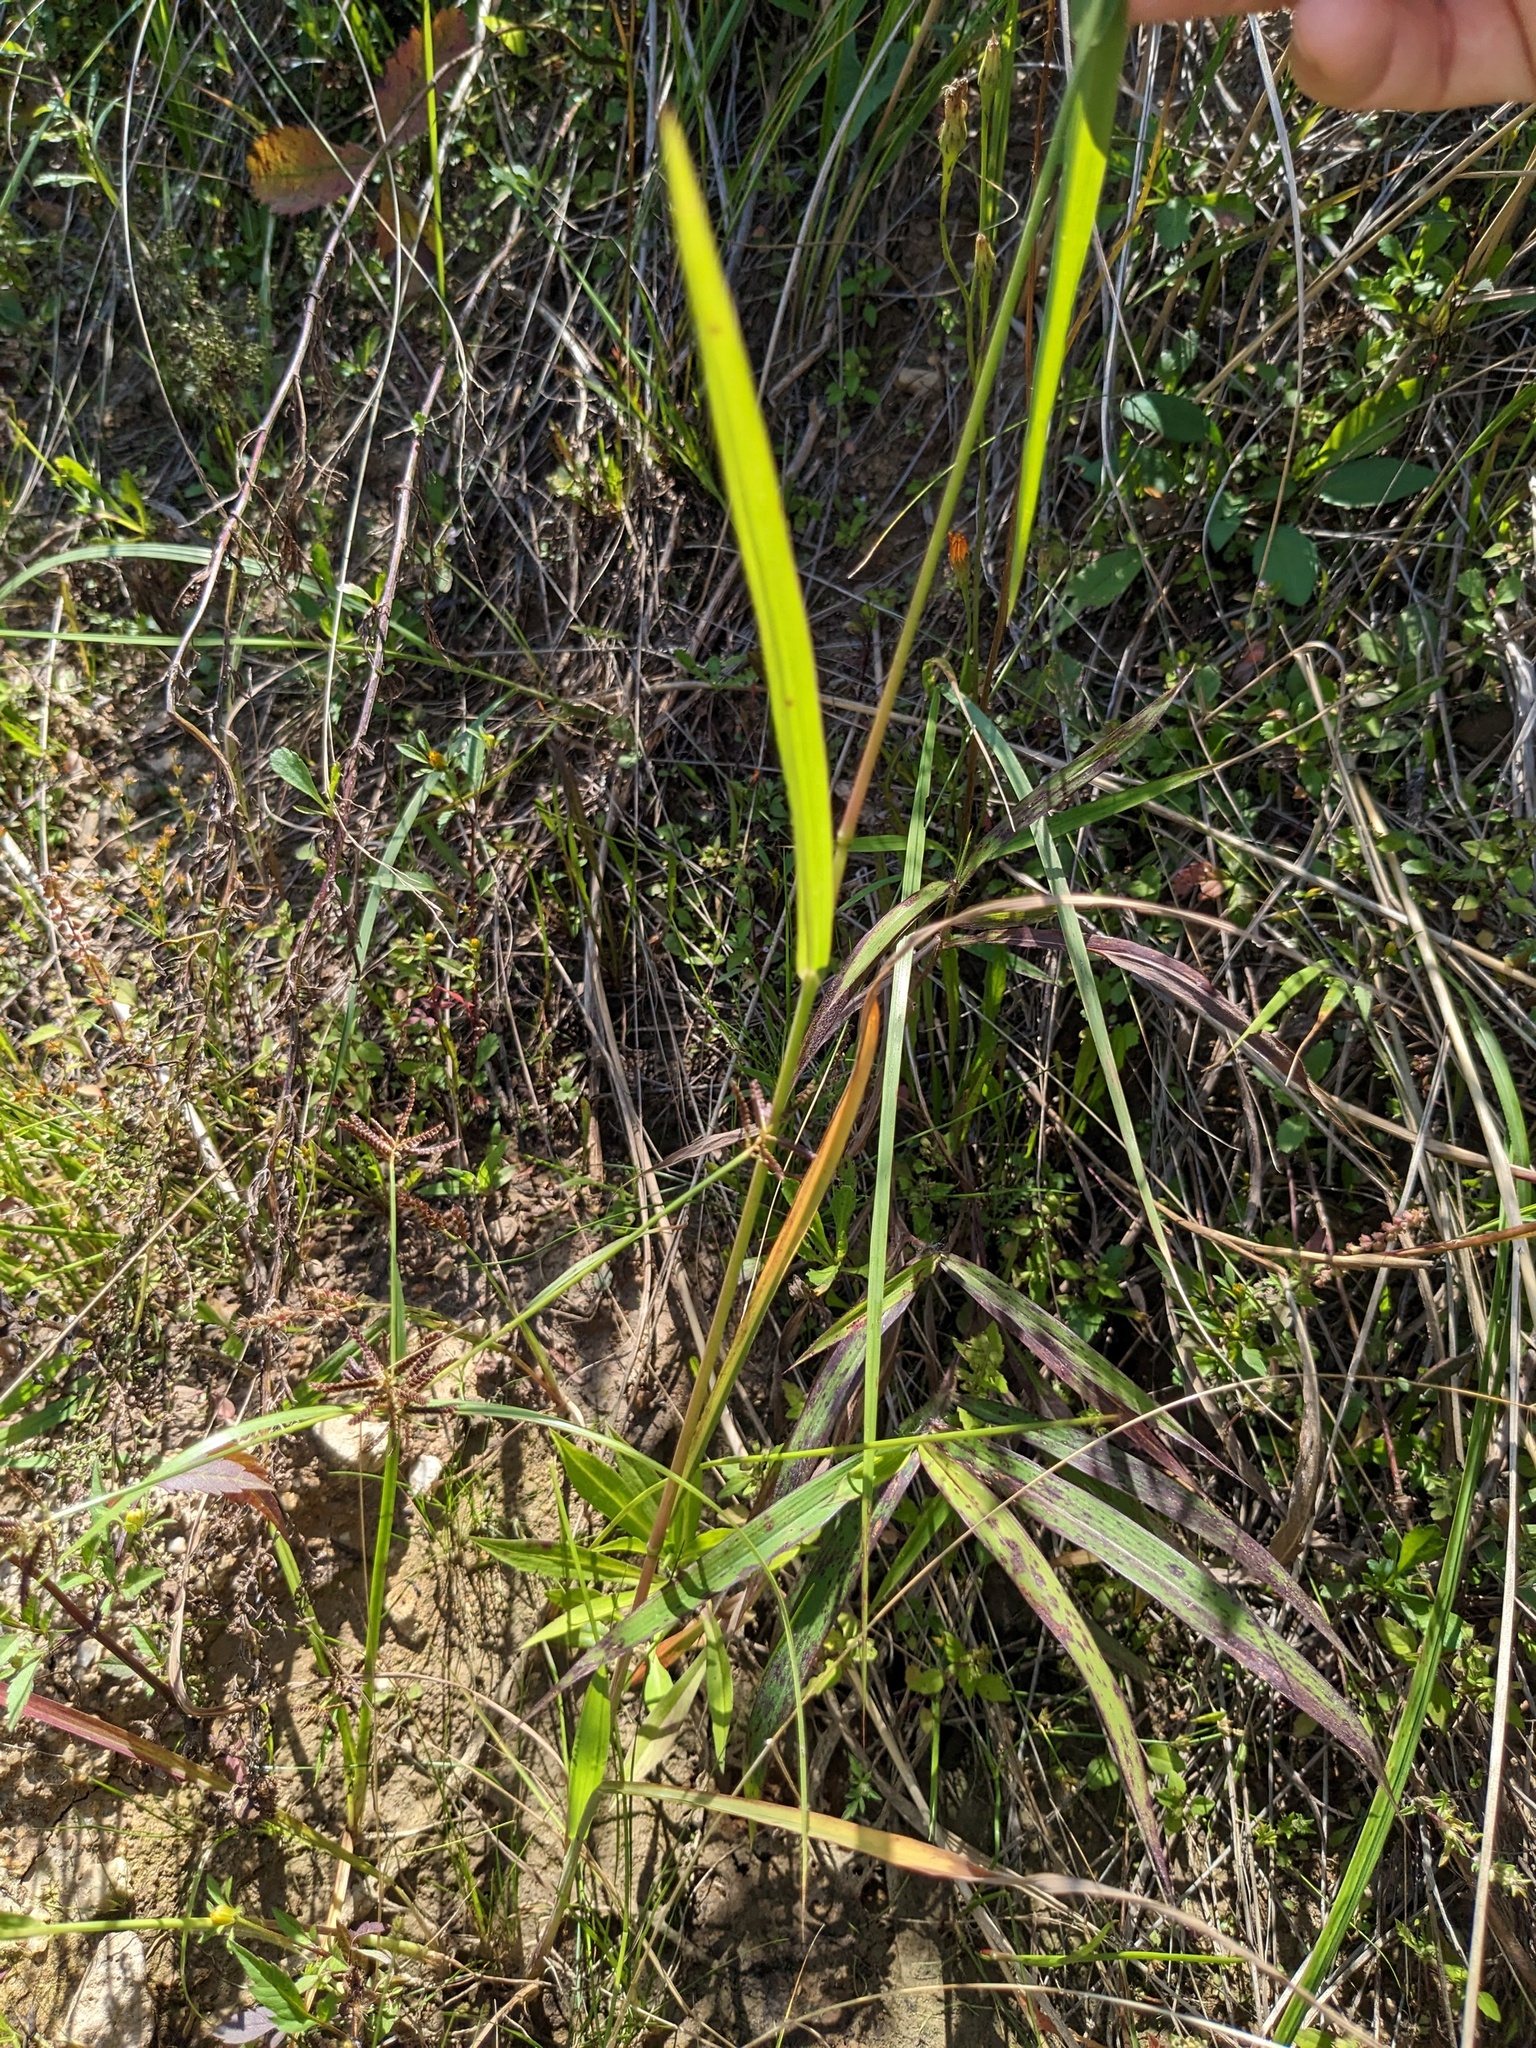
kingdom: Plantae
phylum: Tracheophyta
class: Liliopsida
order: Poales
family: Poaceae
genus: Echinochloa
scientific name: Echinochloa crus-galli
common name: Cockspur
